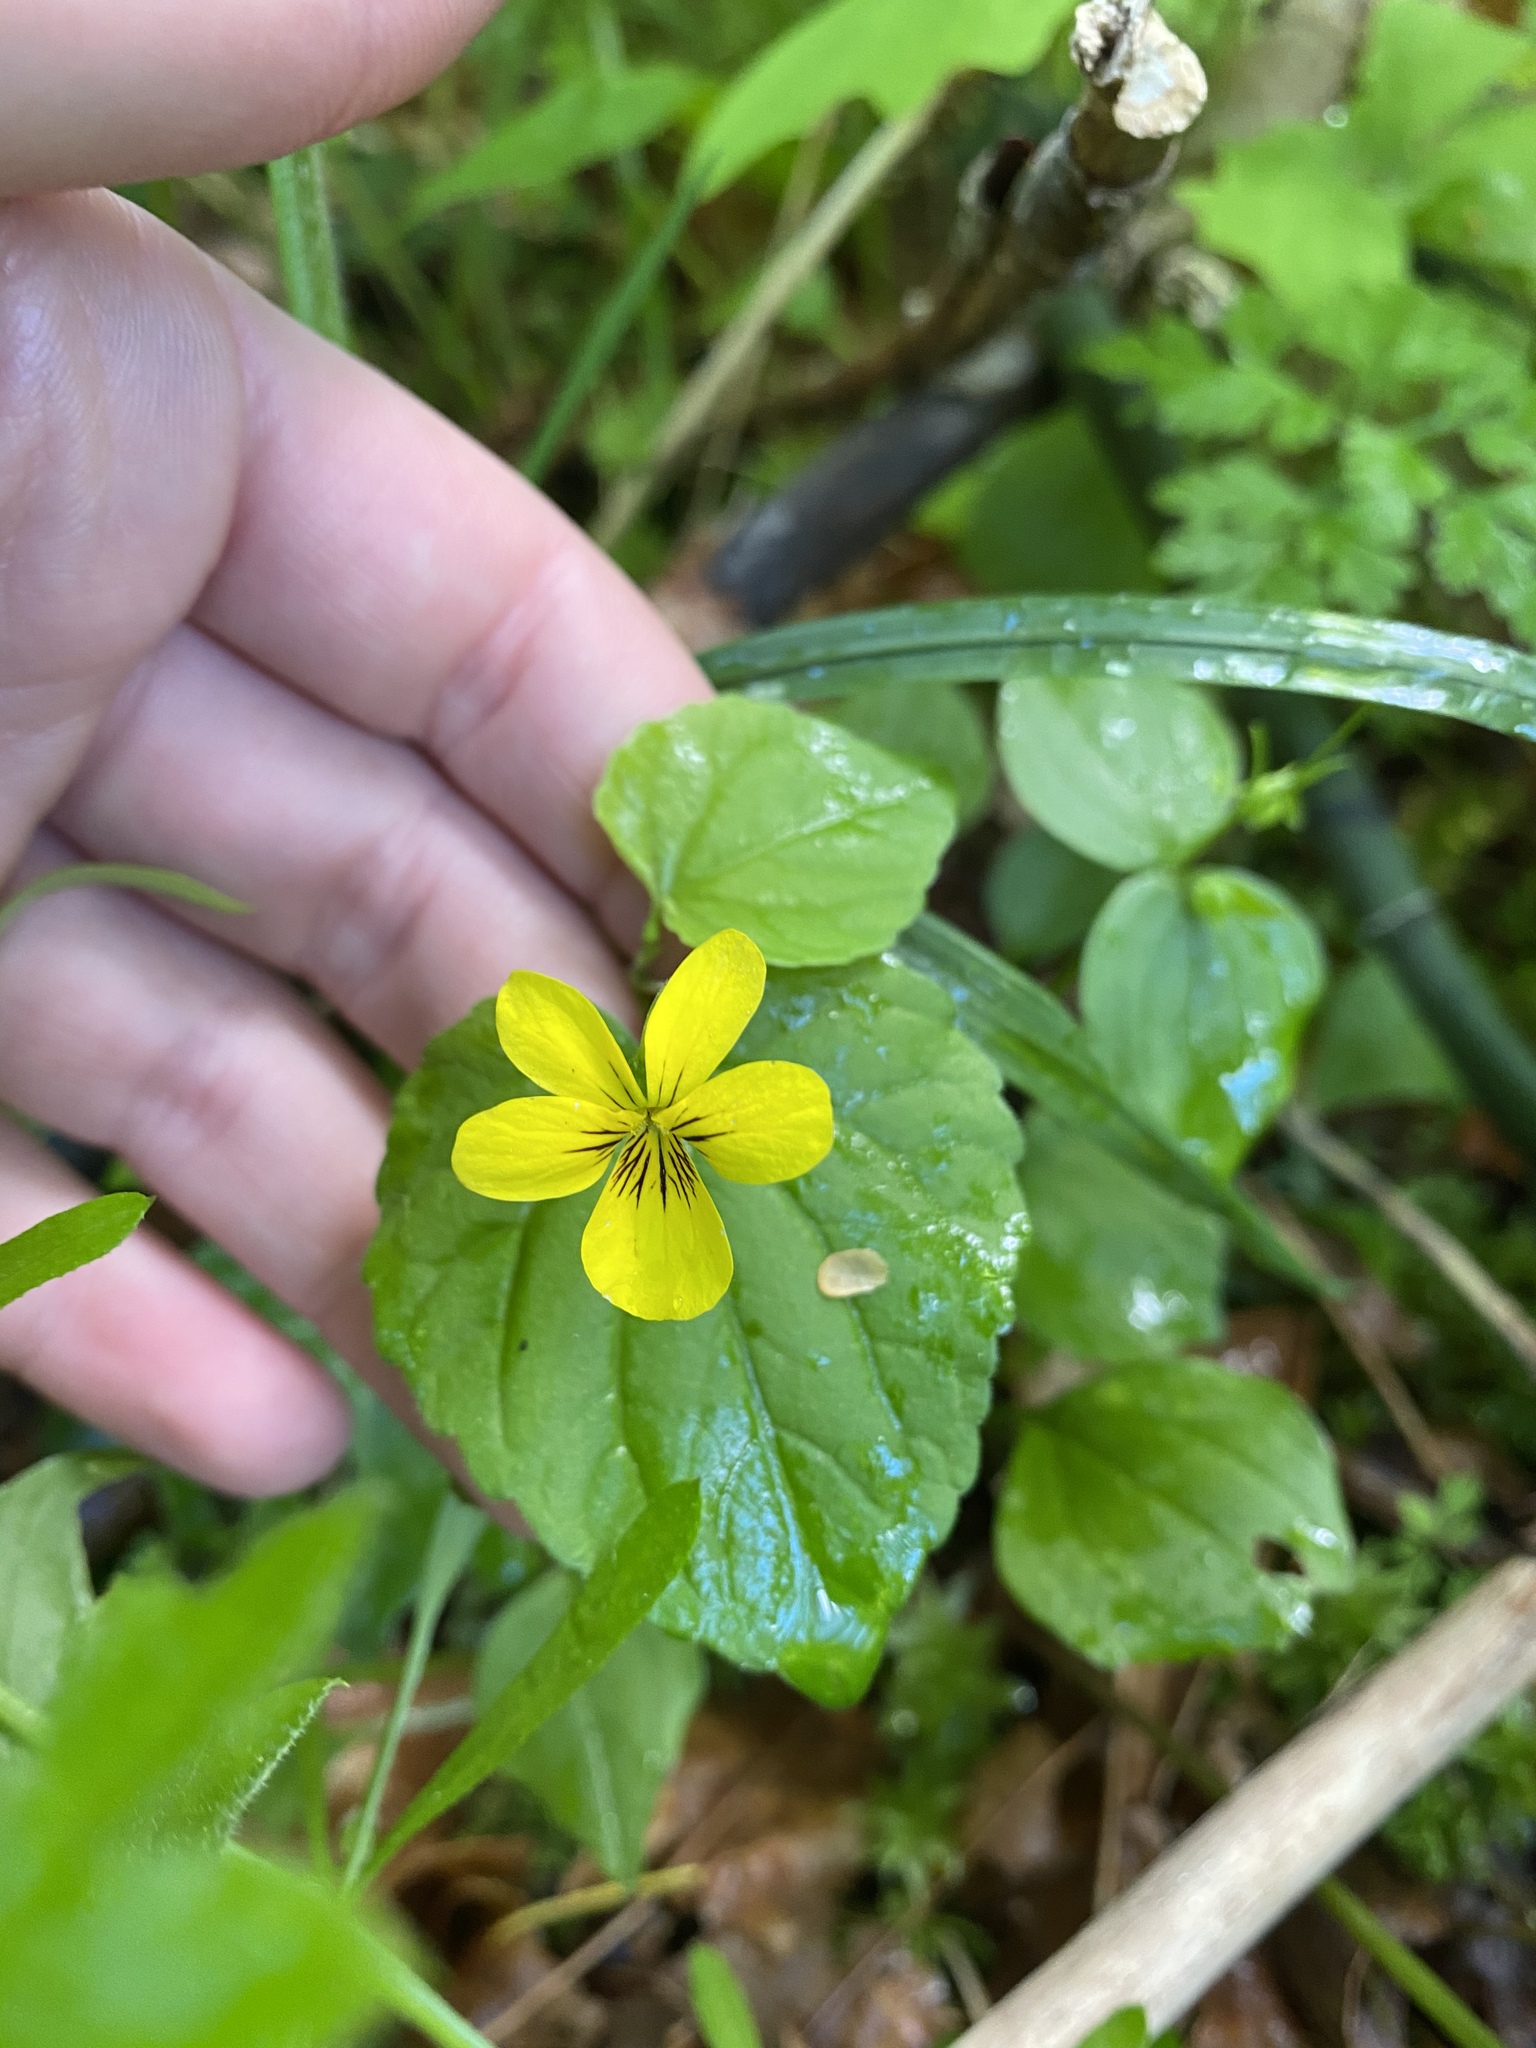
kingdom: Plantae
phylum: Tracheophyta
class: Magnoliopsida
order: Malpighiales
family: Violaceae
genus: Viola
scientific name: Viola glabella
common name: Stream violet
